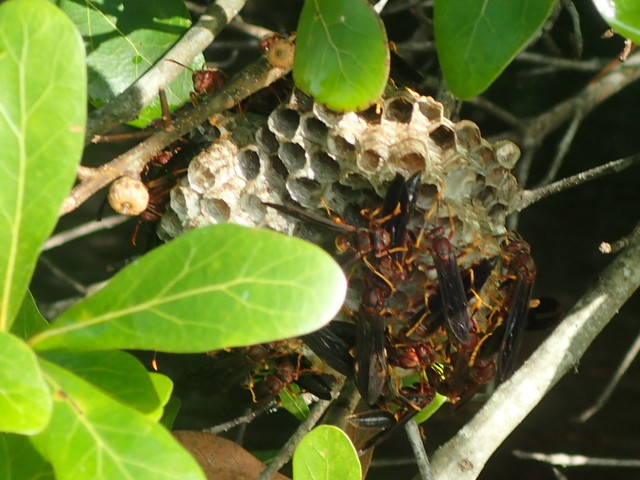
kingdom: Animalia
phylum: Arthropoda
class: Insecta
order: Hymenoptera
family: Eumenidae
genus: Polistes
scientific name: Polistes annularis
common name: Ringed paper wasp
